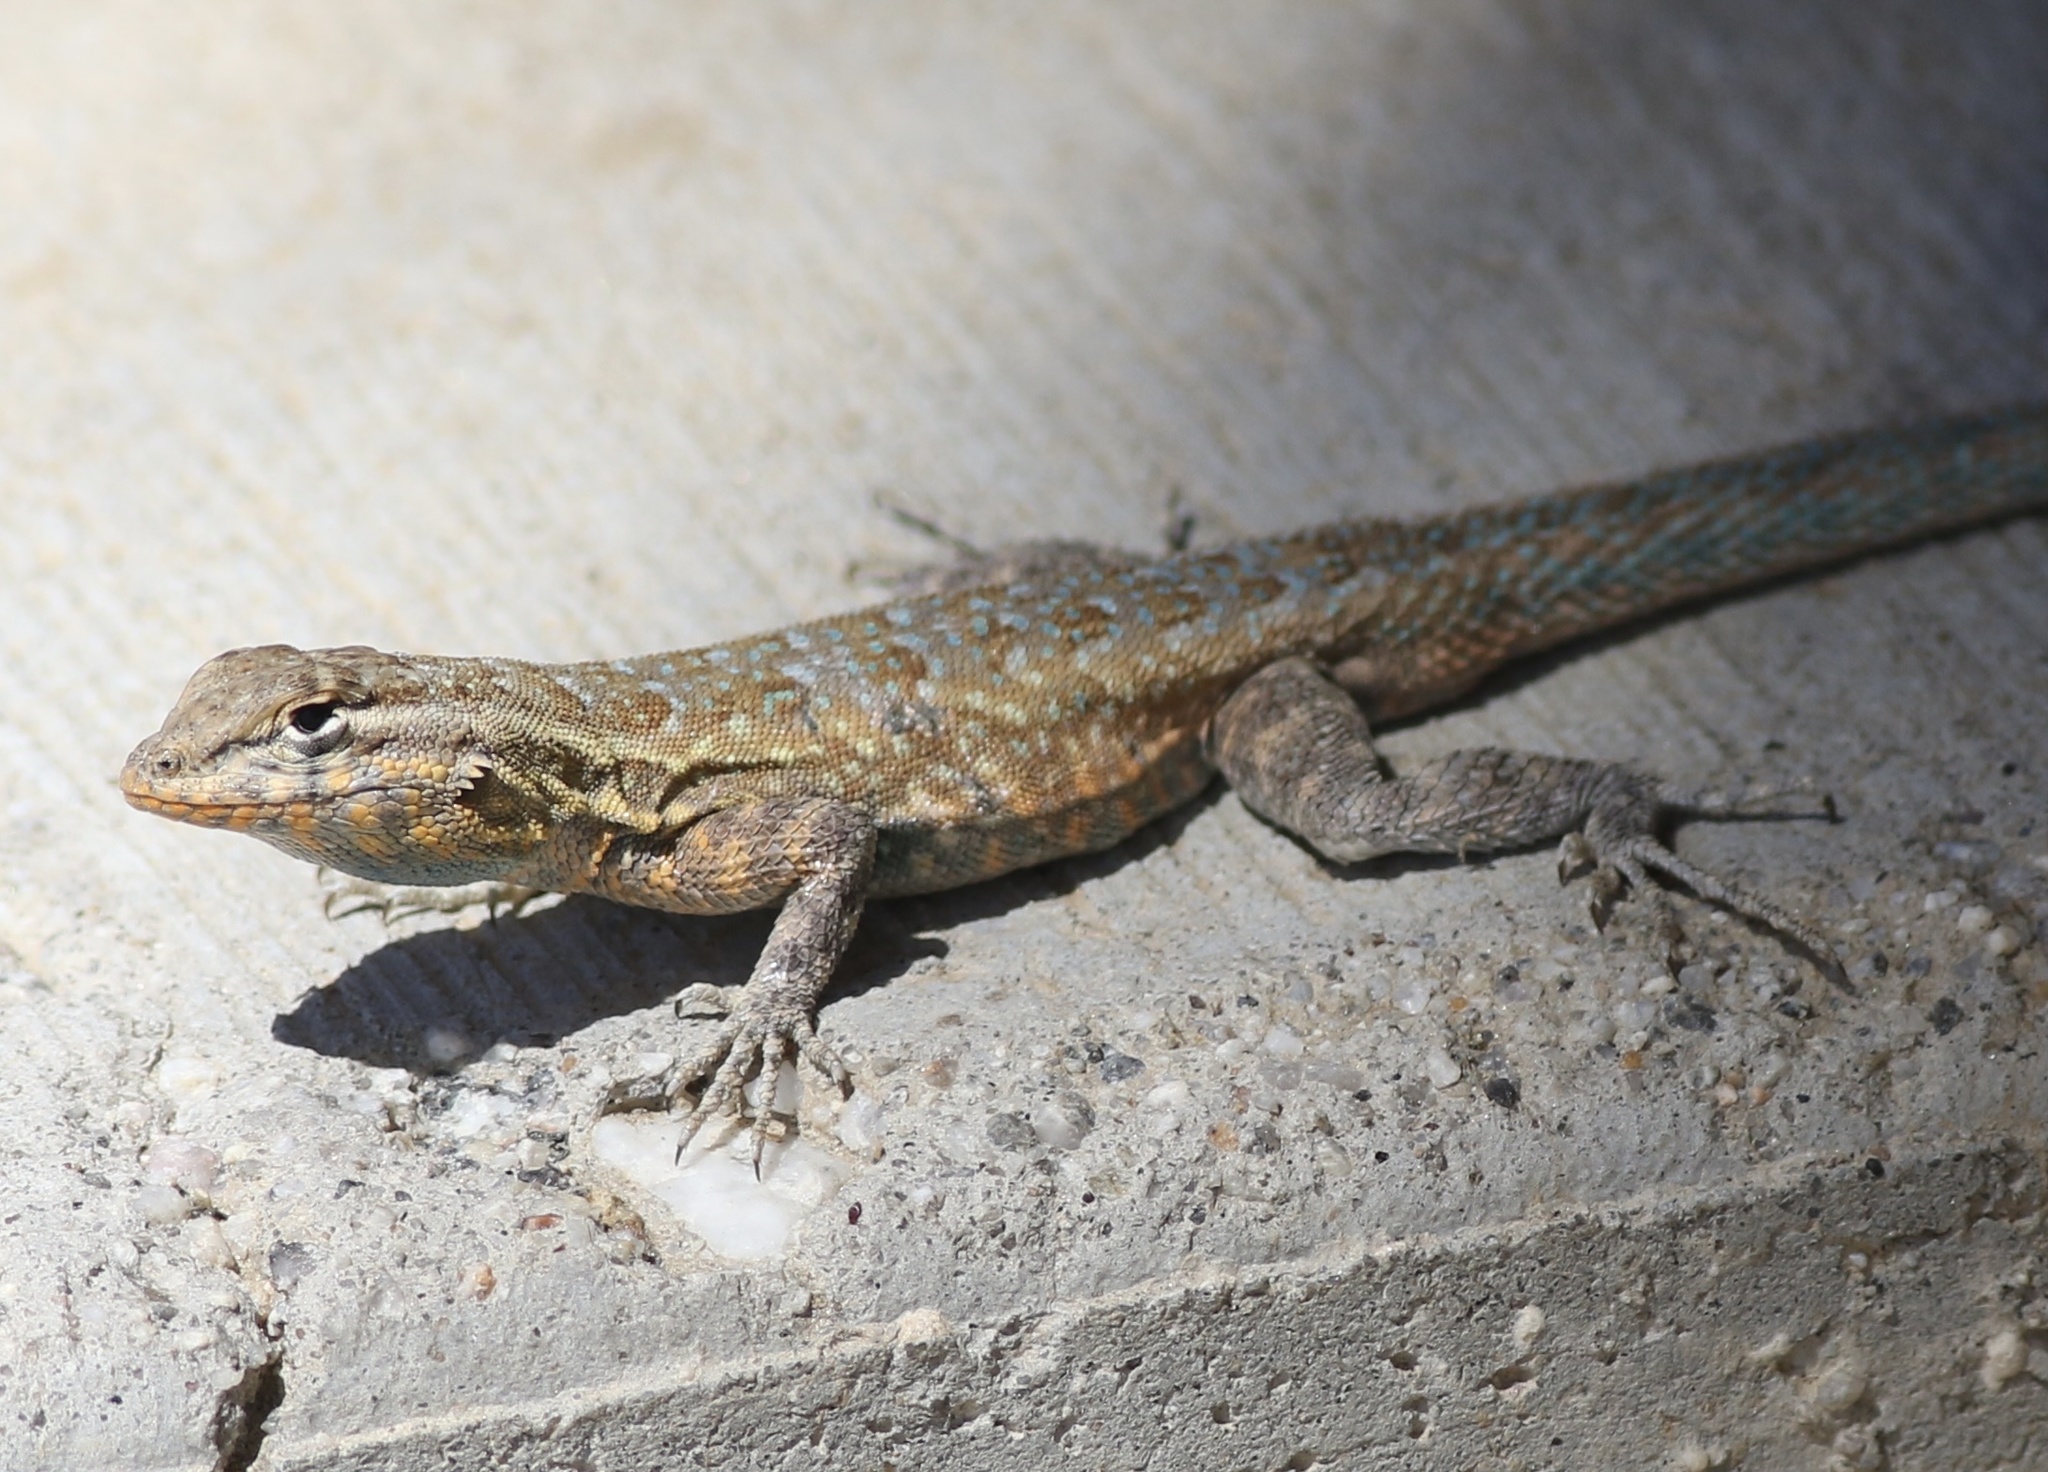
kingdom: Animalia
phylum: Chordata
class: Squamata
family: Phrynosomatidae
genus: Uta
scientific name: Uta stansburiana
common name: Side-blotched lizard
